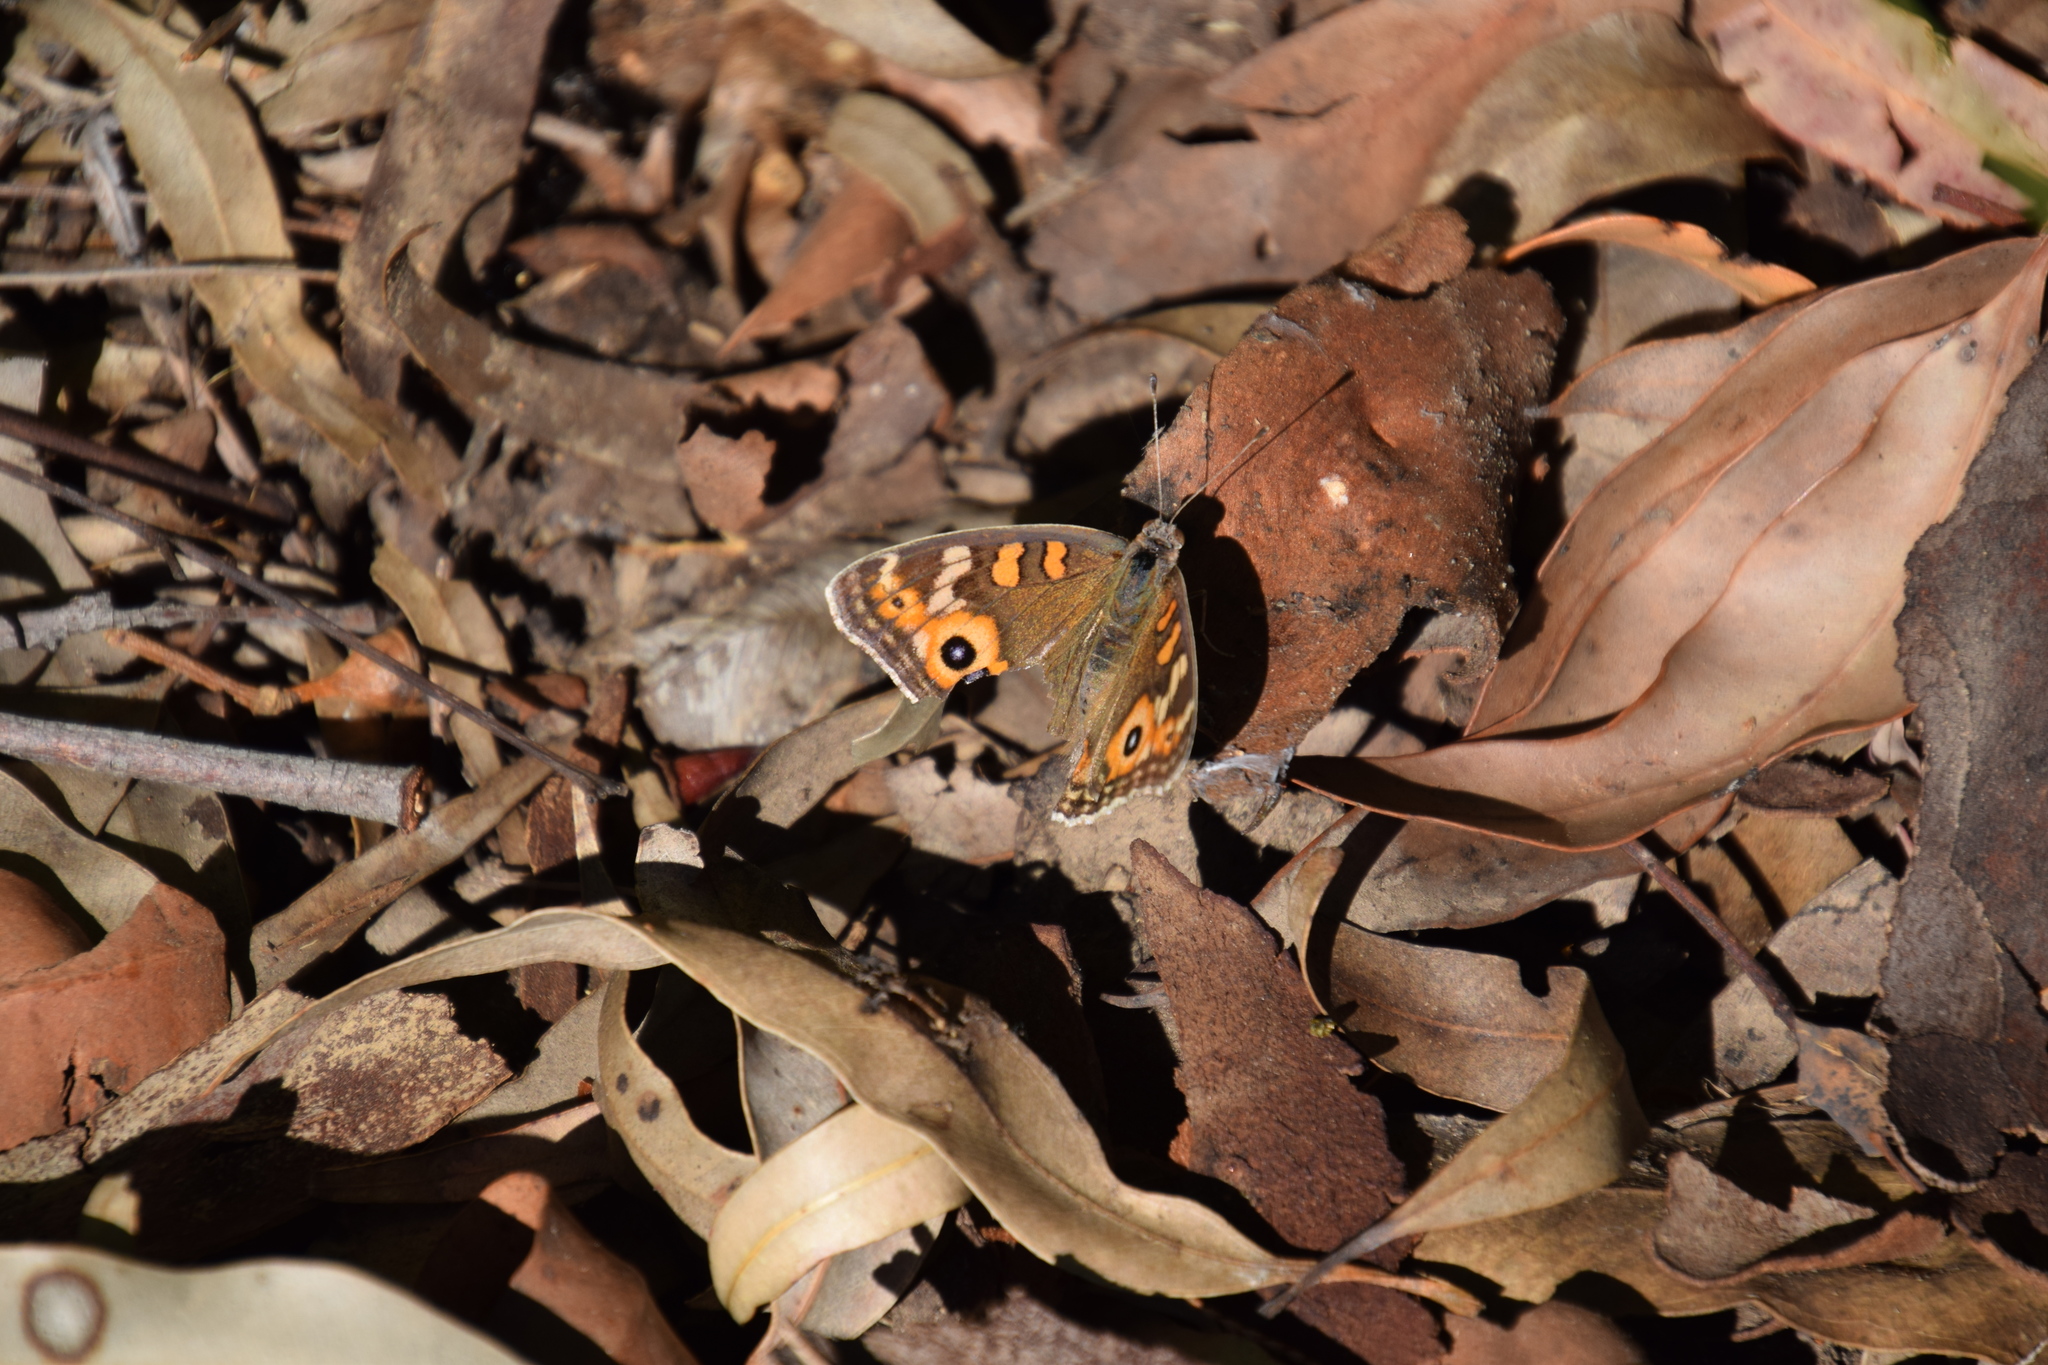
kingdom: Animalia
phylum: Arthropoda
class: Insecta
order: Lepidoptera
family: Nymphalidae
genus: Junonia
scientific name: Junonia villida
